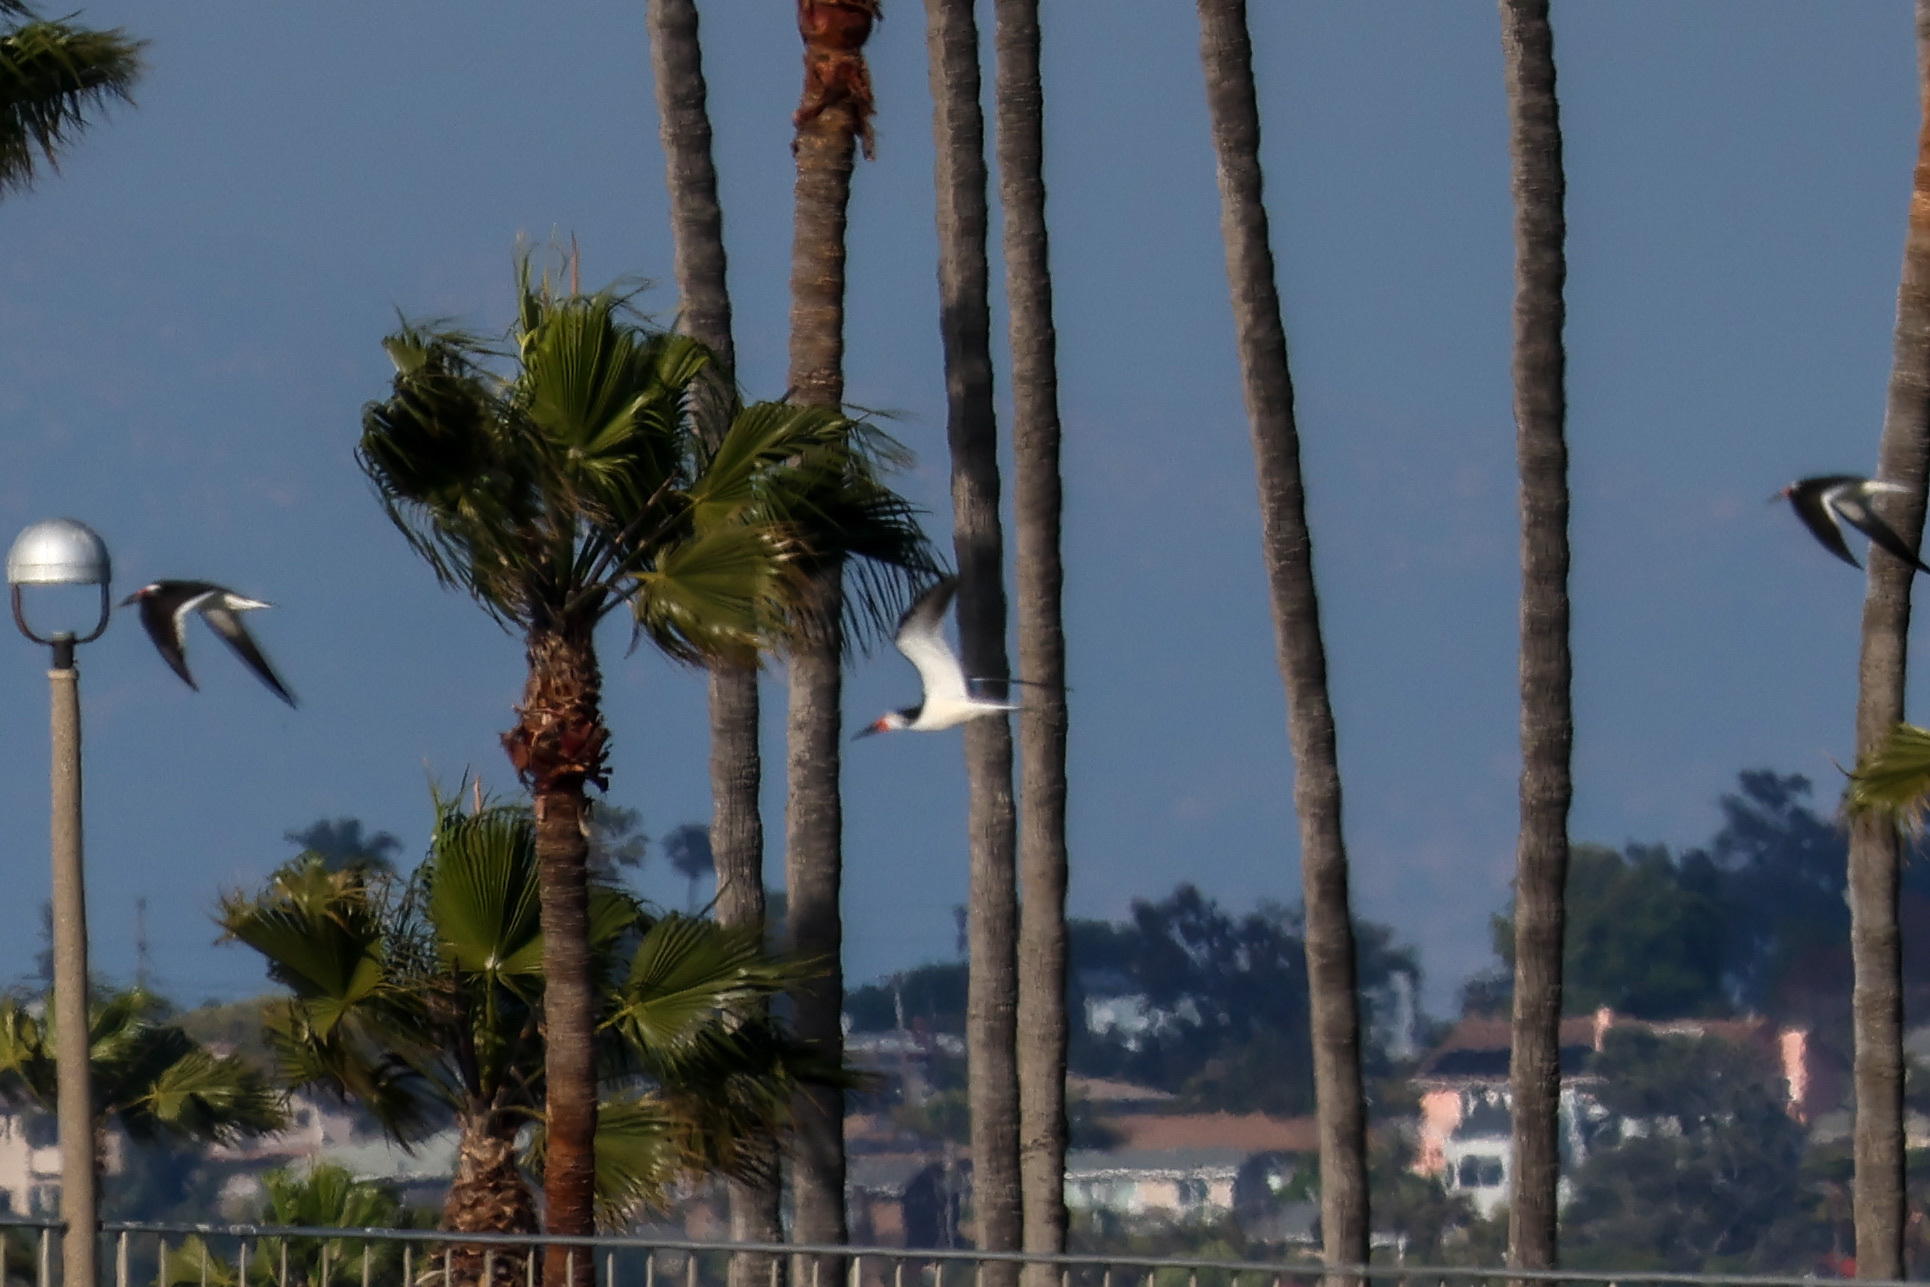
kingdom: Animalia
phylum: Chordata
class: Aves
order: Charadriiformes
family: Laridae
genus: Rynchops
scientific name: Rynchops niger
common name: Black skimmer
